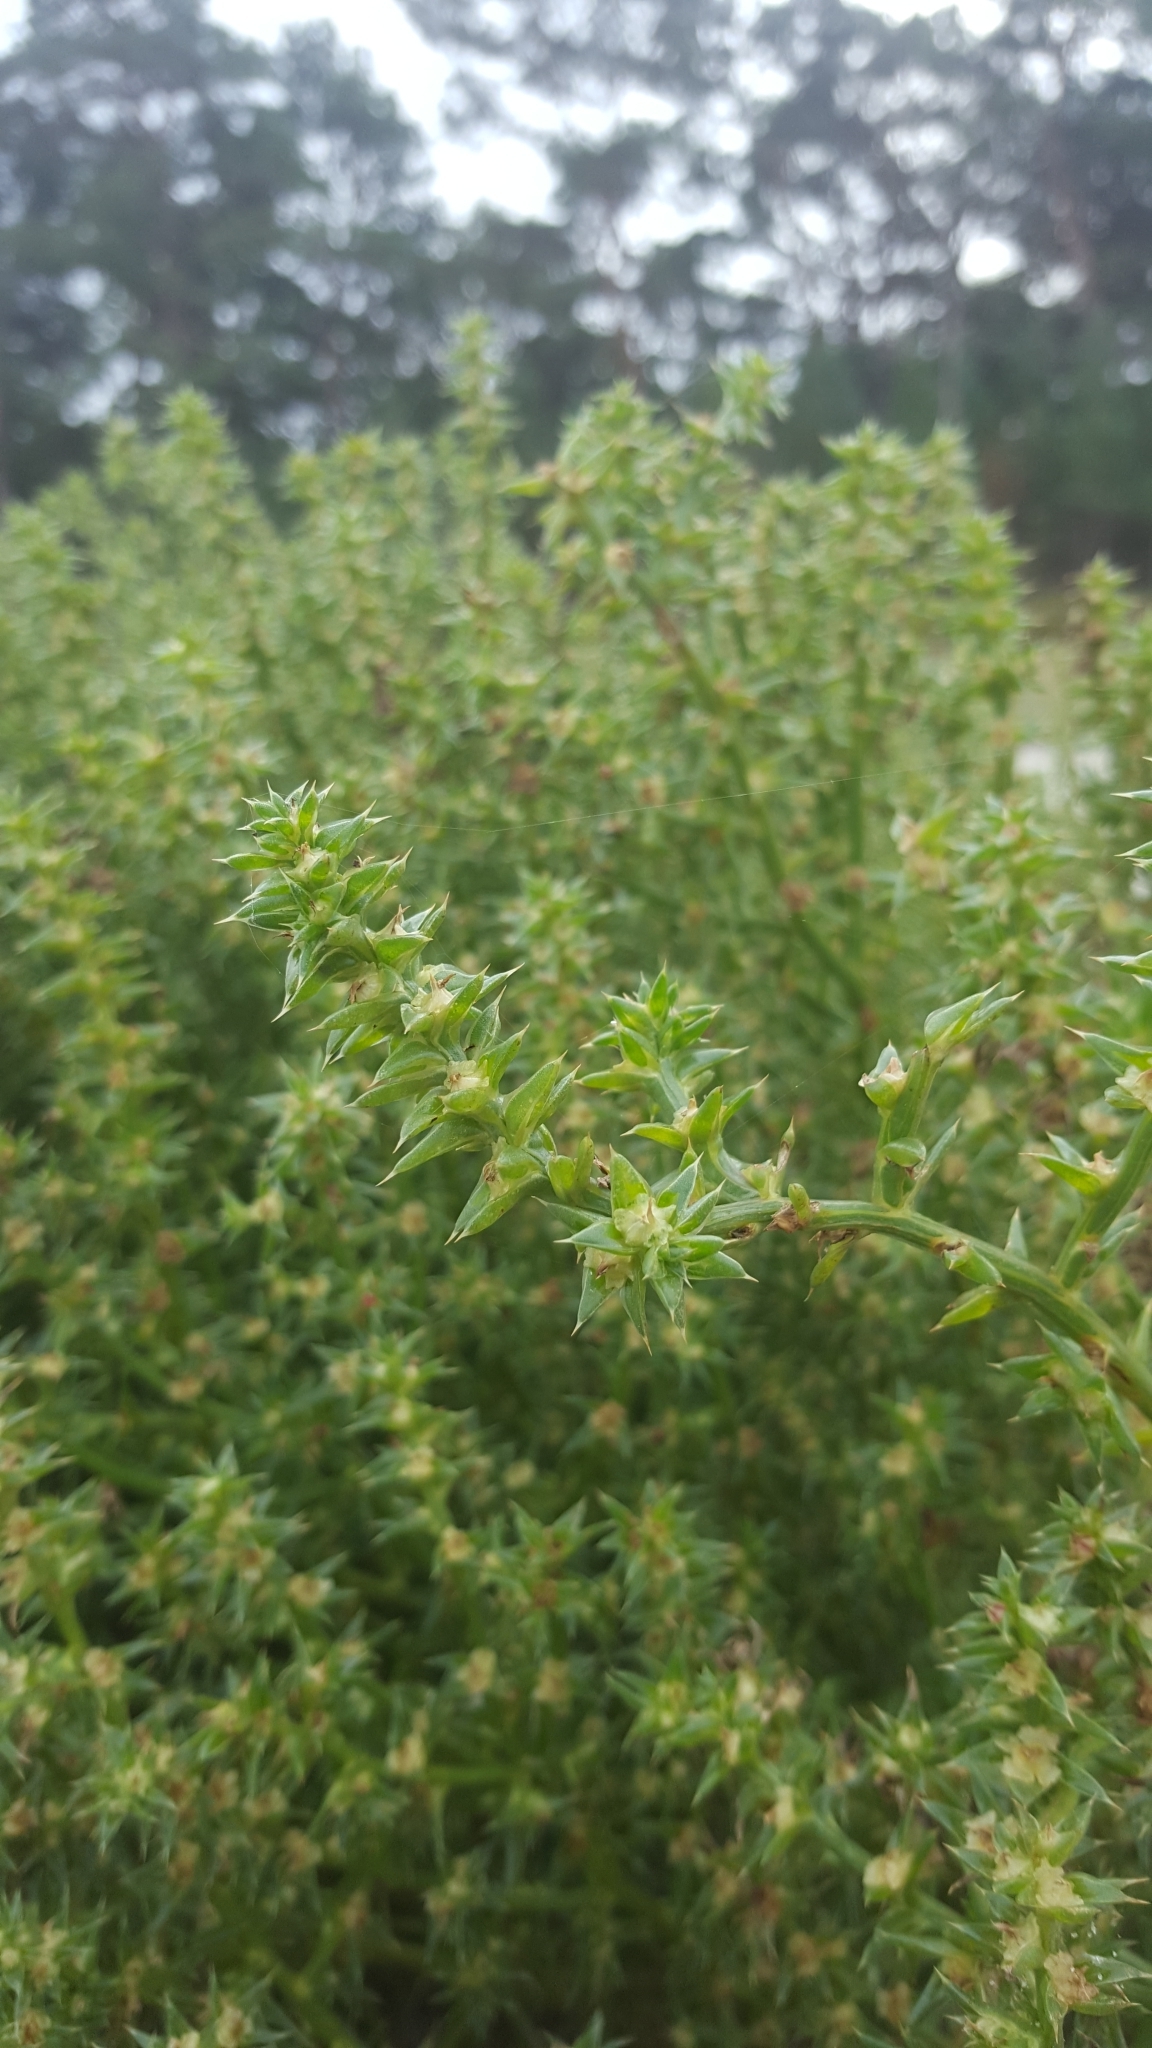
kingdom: Plantae
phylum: Tracheophyta
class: Magnoliopsida
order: Caryophyllales
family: Amaranthaceae
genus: Salsola
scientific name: Salsola kali
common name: Saltwort
